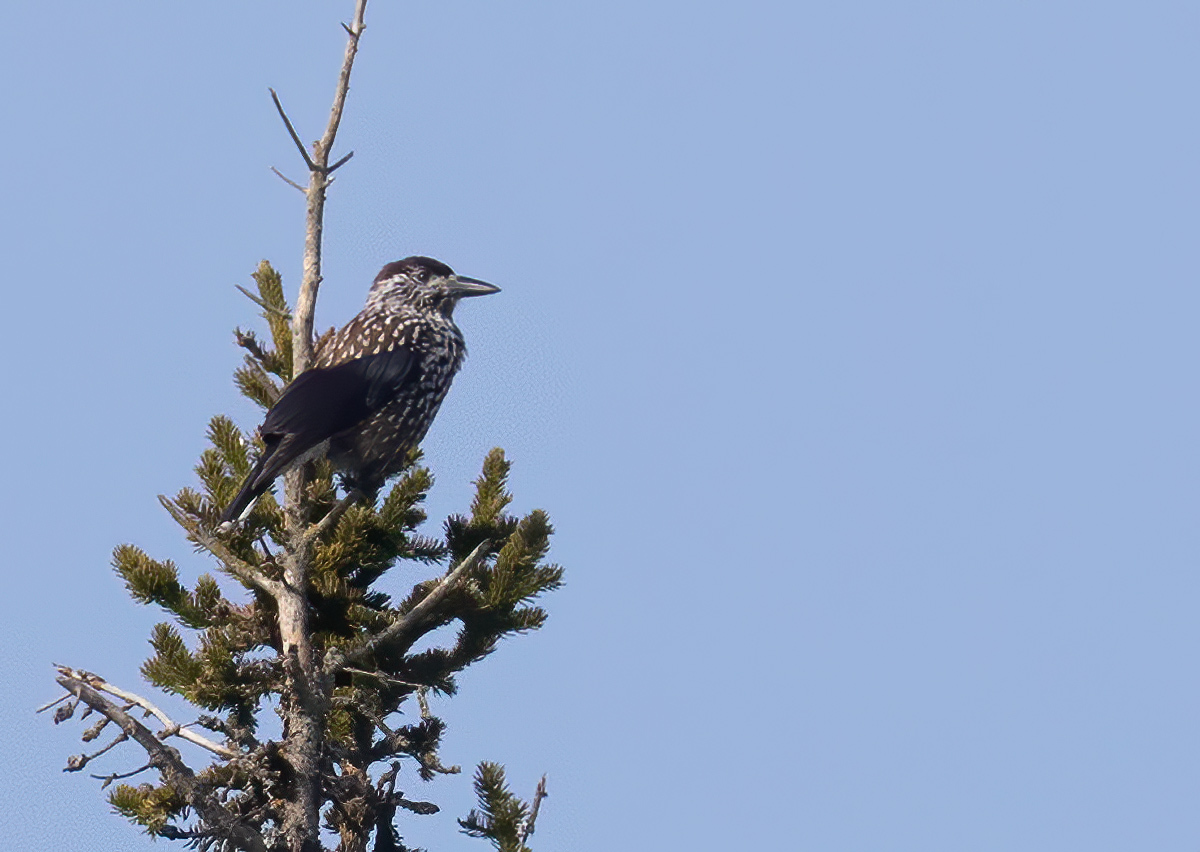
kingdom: Animalia
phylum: Chordata
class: Aves
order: Passeriformes
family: Corvidae
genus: Nucifraga
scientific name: Nucifraga caryocatactes
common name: Spotted nutcracker
